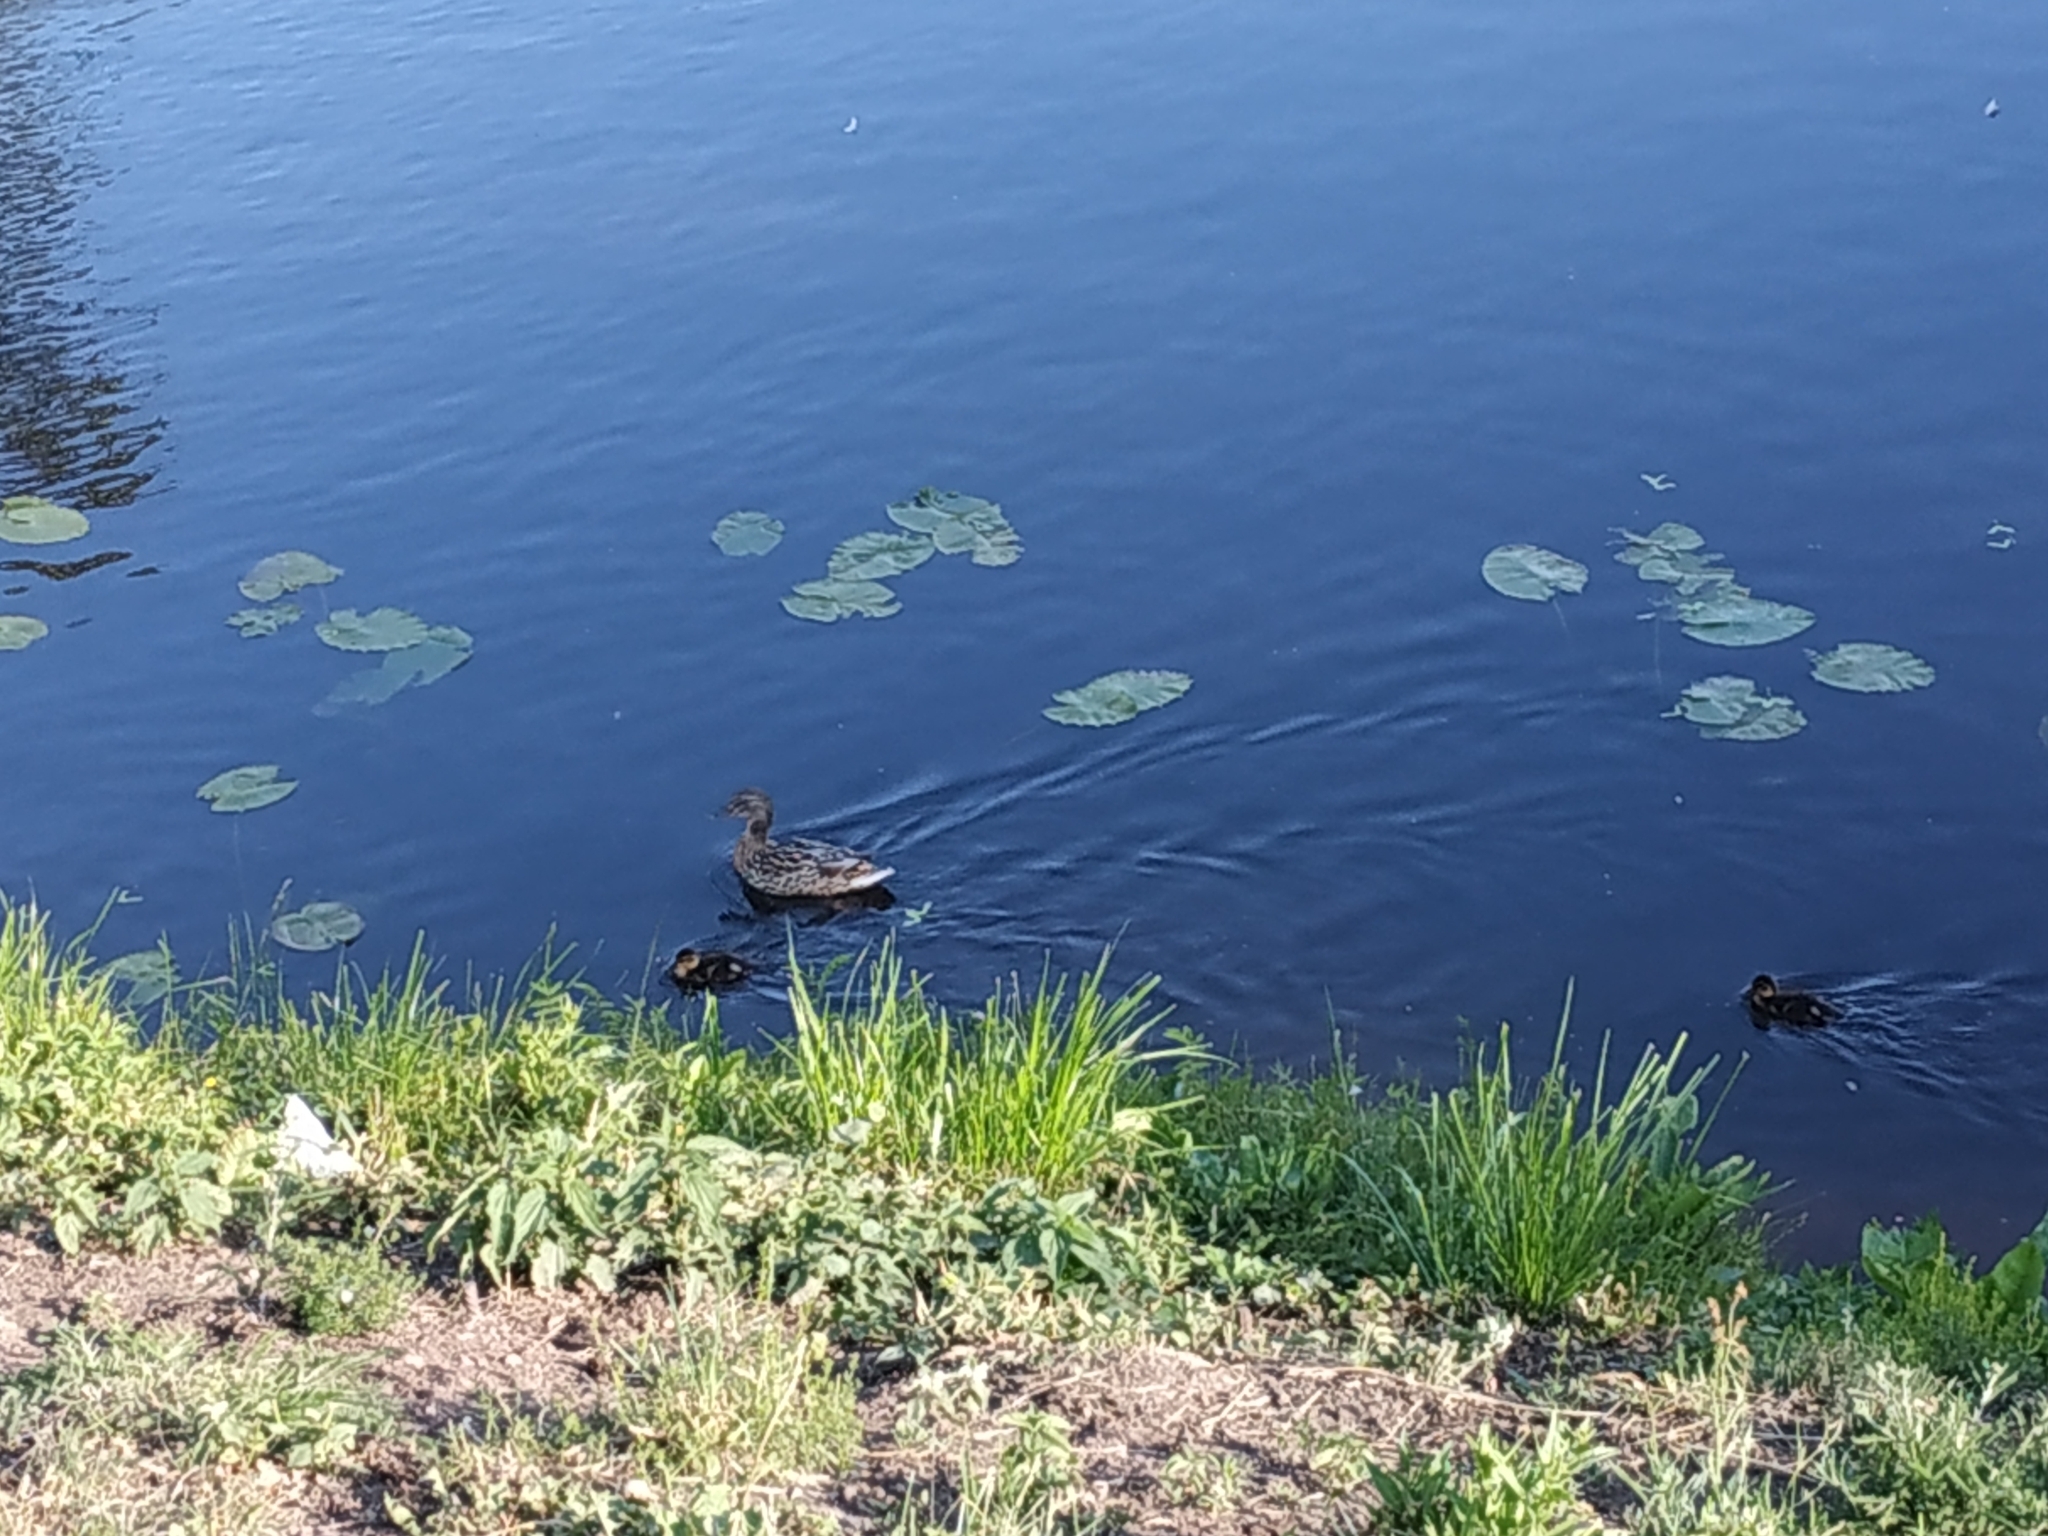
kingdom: Animalia
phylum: Chordata
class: Aves
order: Anseriformes
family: Anatidae
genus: Anas
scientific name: Anas platyrhynchos
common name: Mallard
